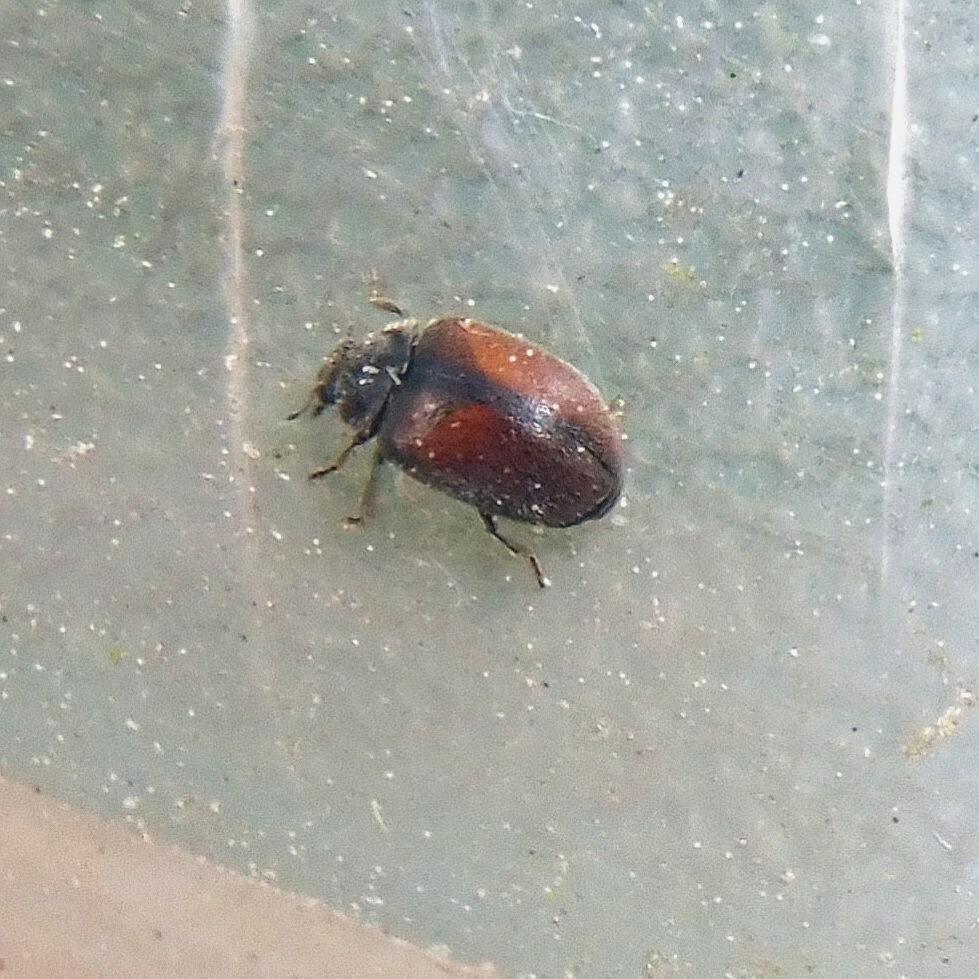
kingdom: Animalia
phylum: Arthropoda
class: Insecta
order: Coleoptera
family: Coccinellidae
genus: Scymnus
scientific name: Scymnus suturalis
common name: Ladybird beetle
